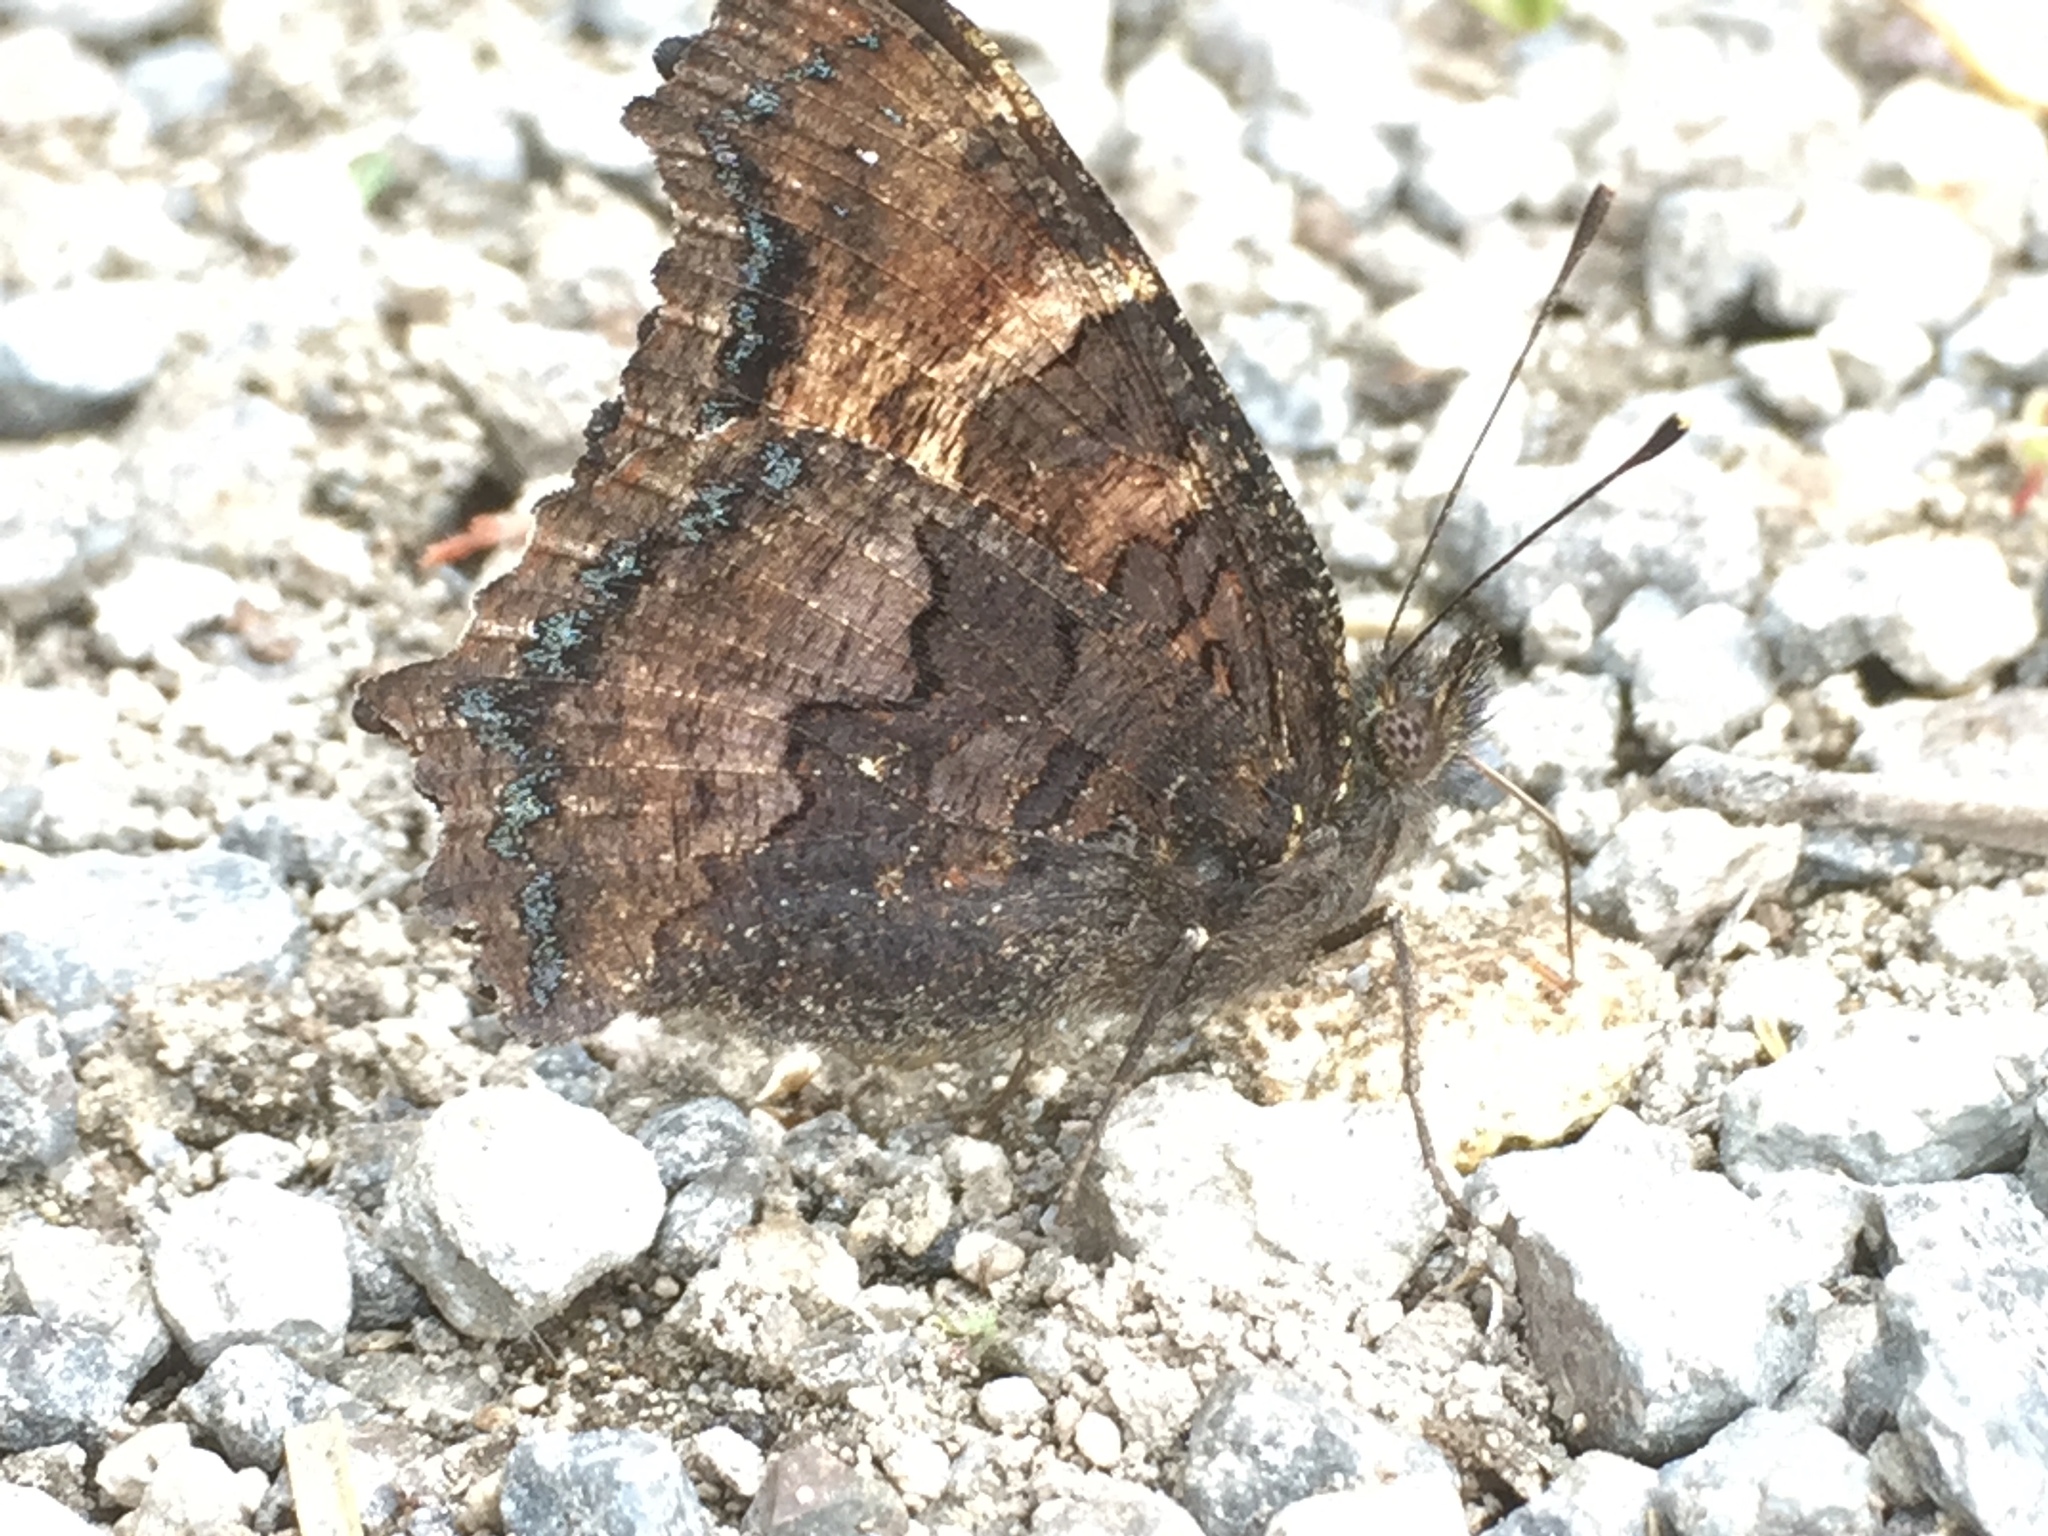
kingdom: Animalia
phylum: Arthropoda
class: Insecta
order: Lepidoptera
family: Nymphalidae
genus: Nymphalis
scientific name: Nymphalis californica
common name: California tortoiseshell
